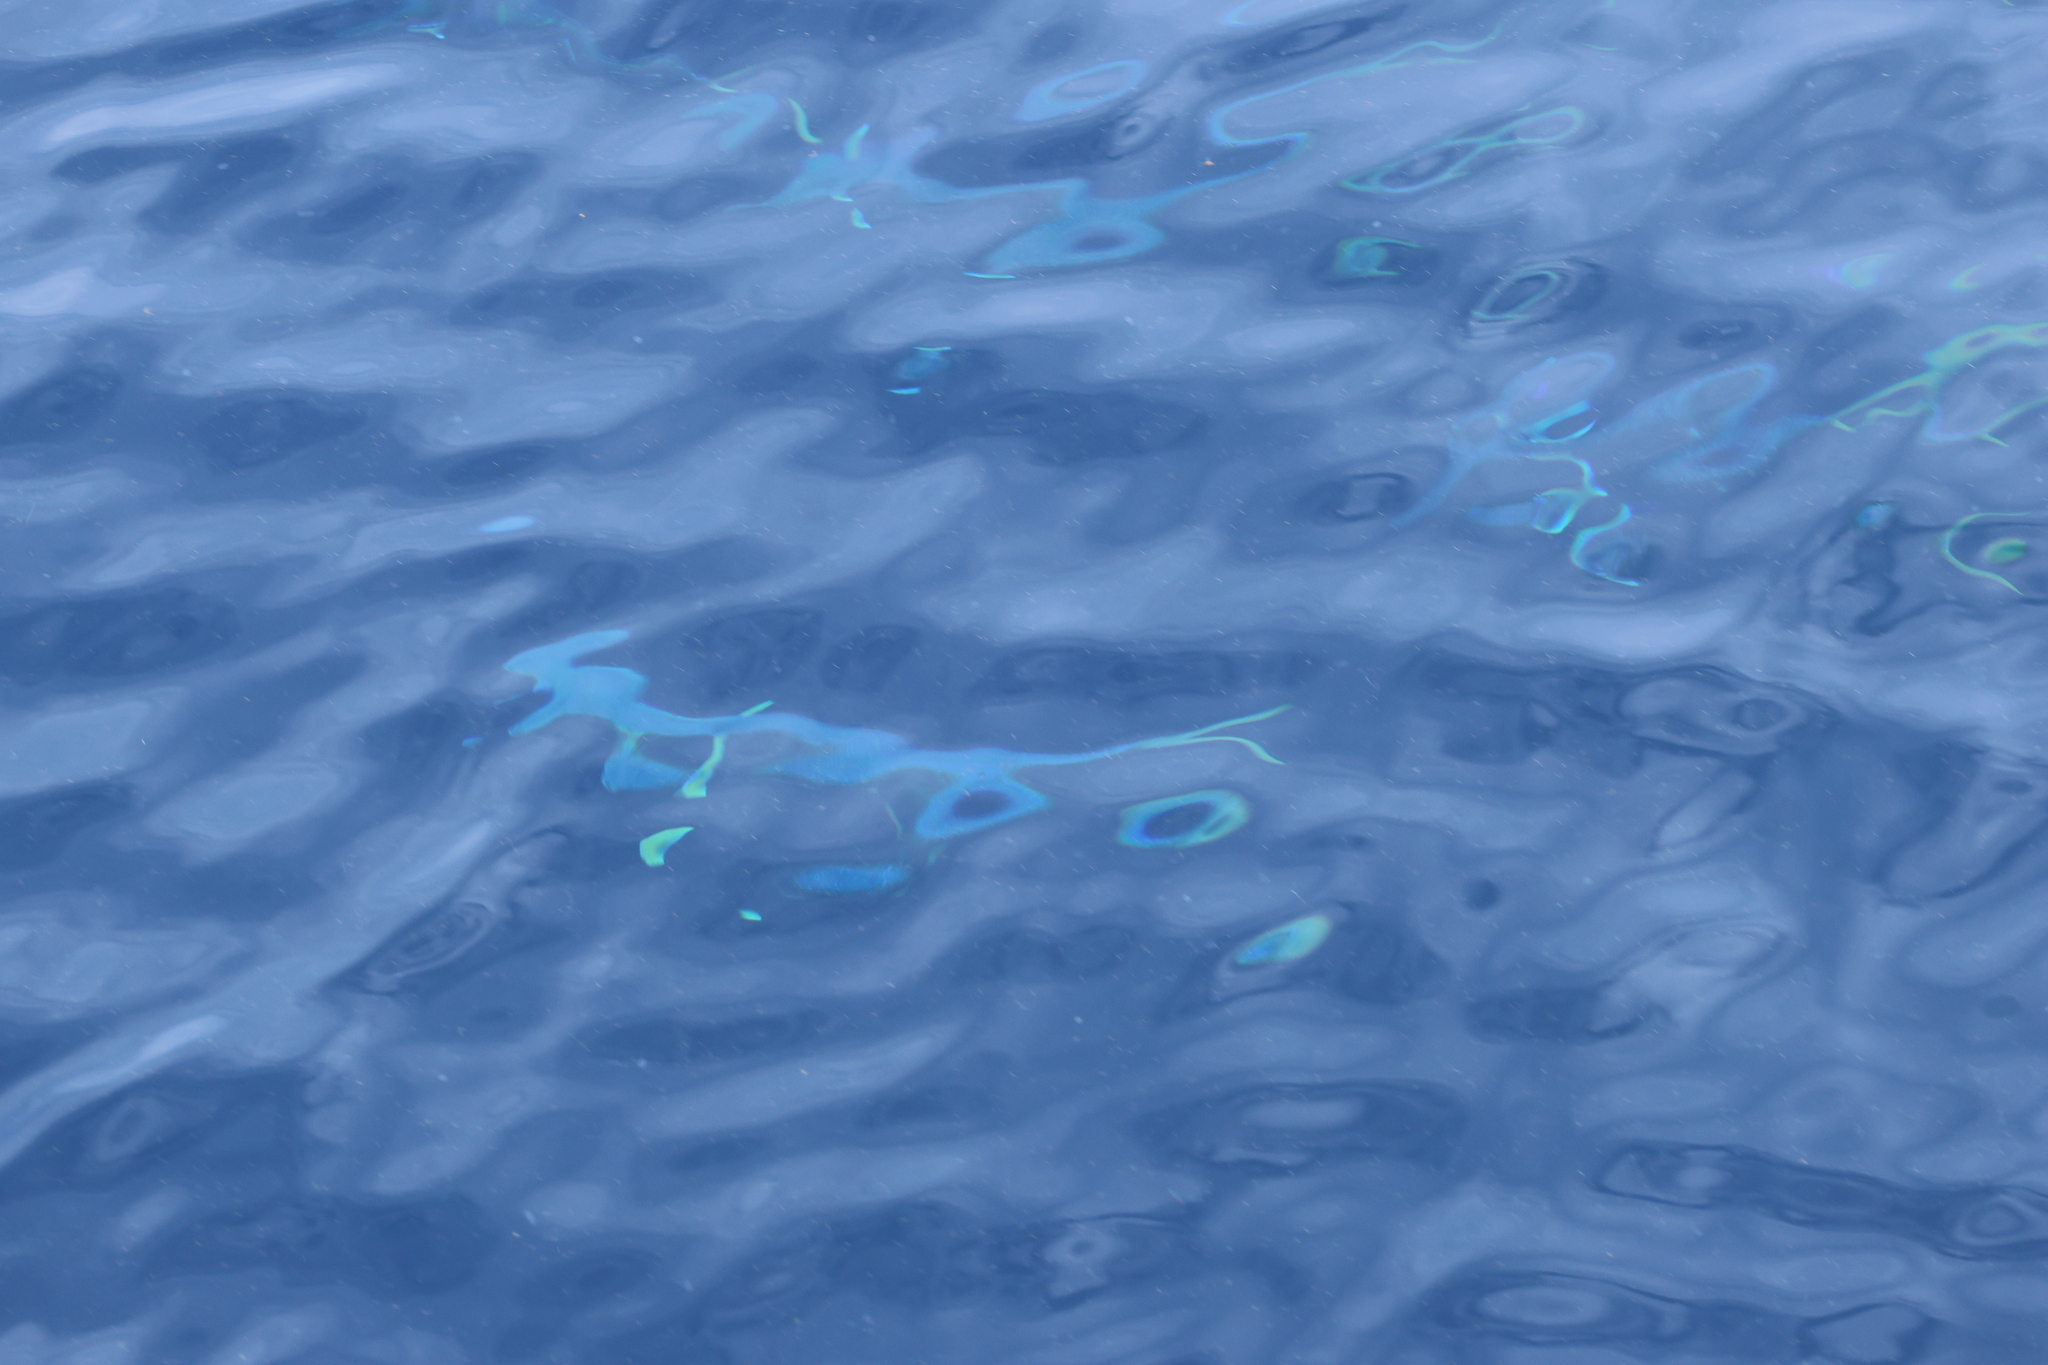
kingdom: Animalia
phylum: Chordata
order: Perciformes
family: Coryphaenidae
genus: Coryphaena
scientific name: Coryphaena hippurus
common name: Dolphin
